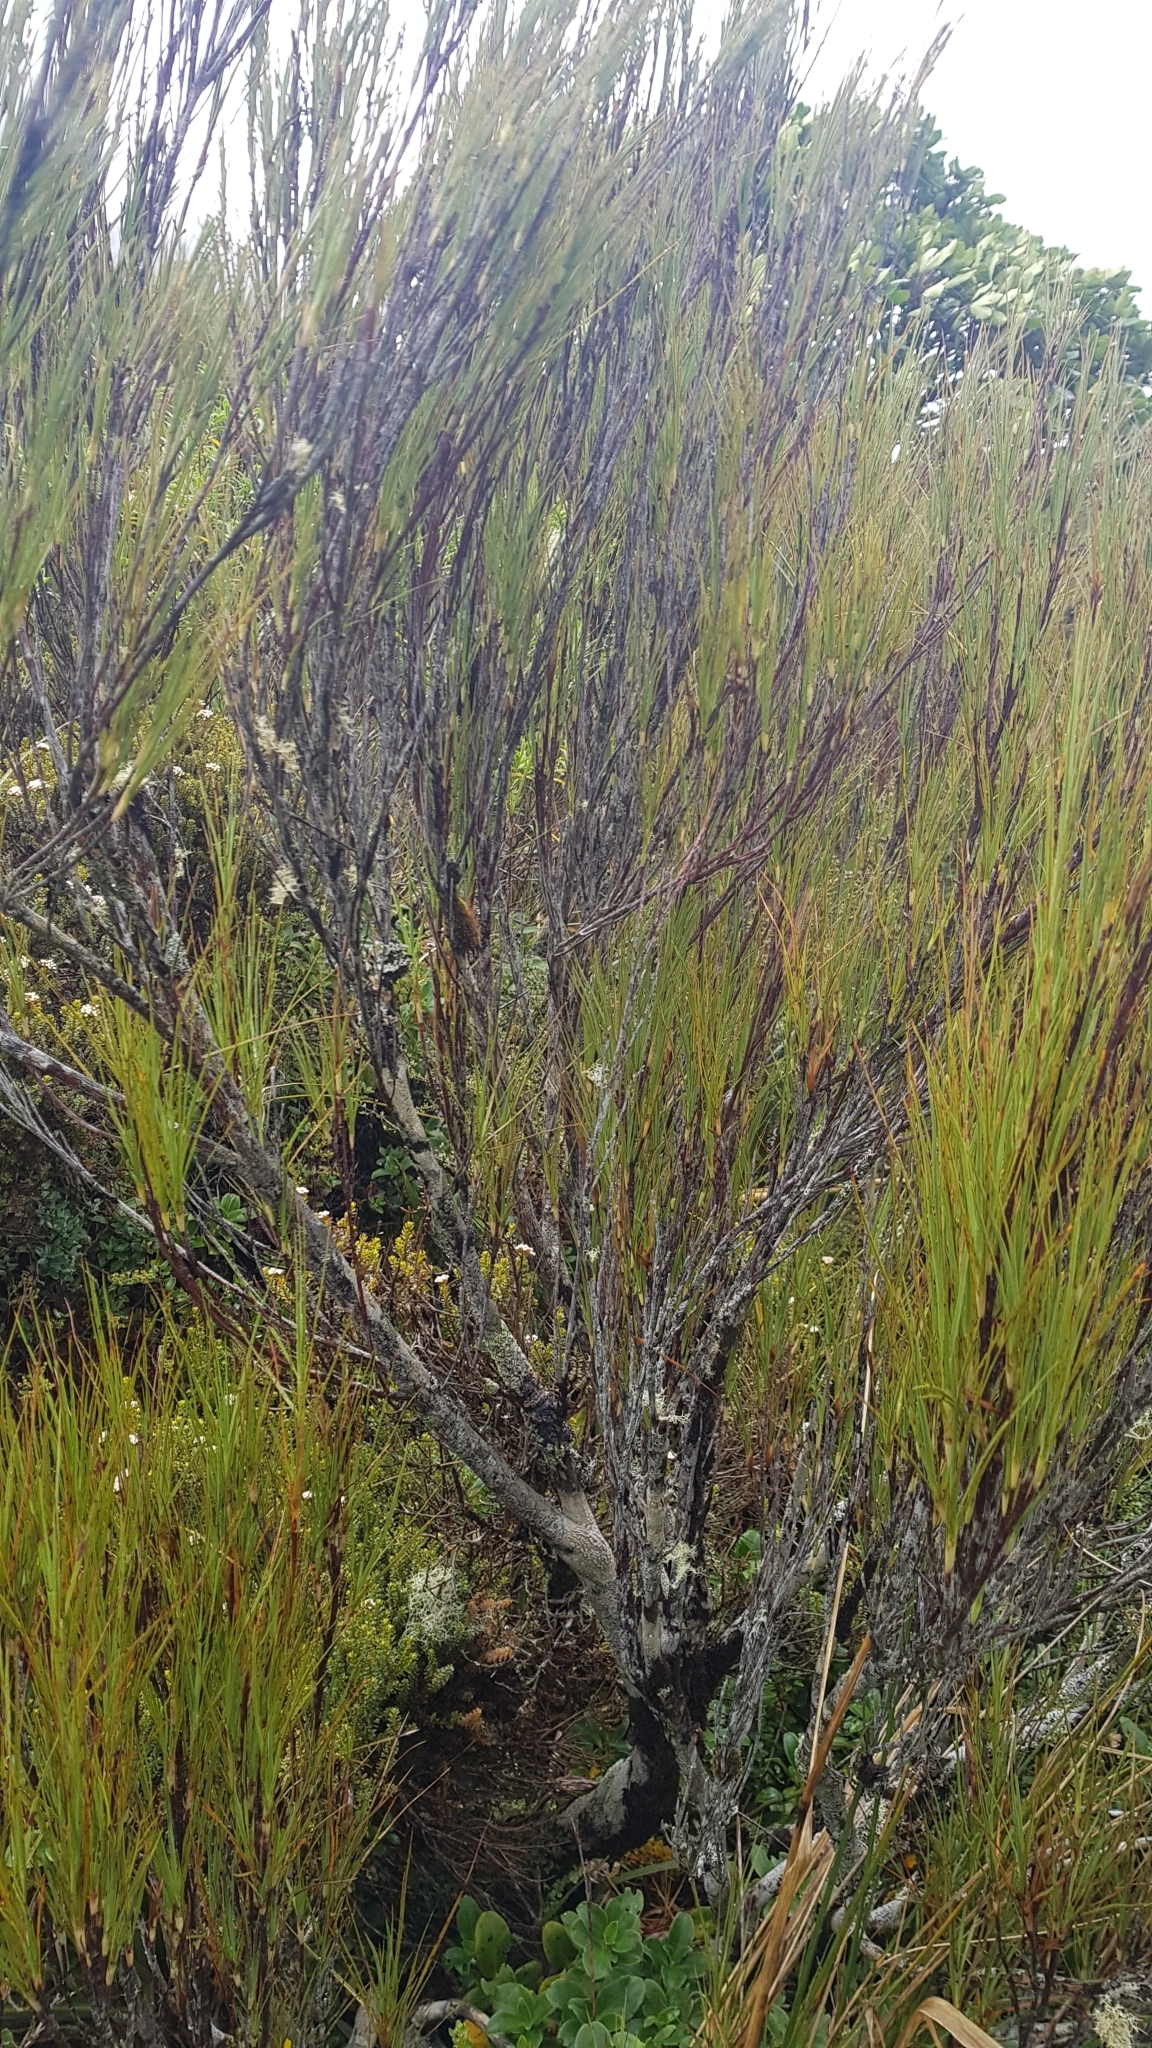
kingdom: Plantae
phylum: Tracheophyta
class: Magnoliopsida
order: Ericales
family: Ericaceae
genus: Dracophyllum
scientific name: Dracophyllum longifolium
